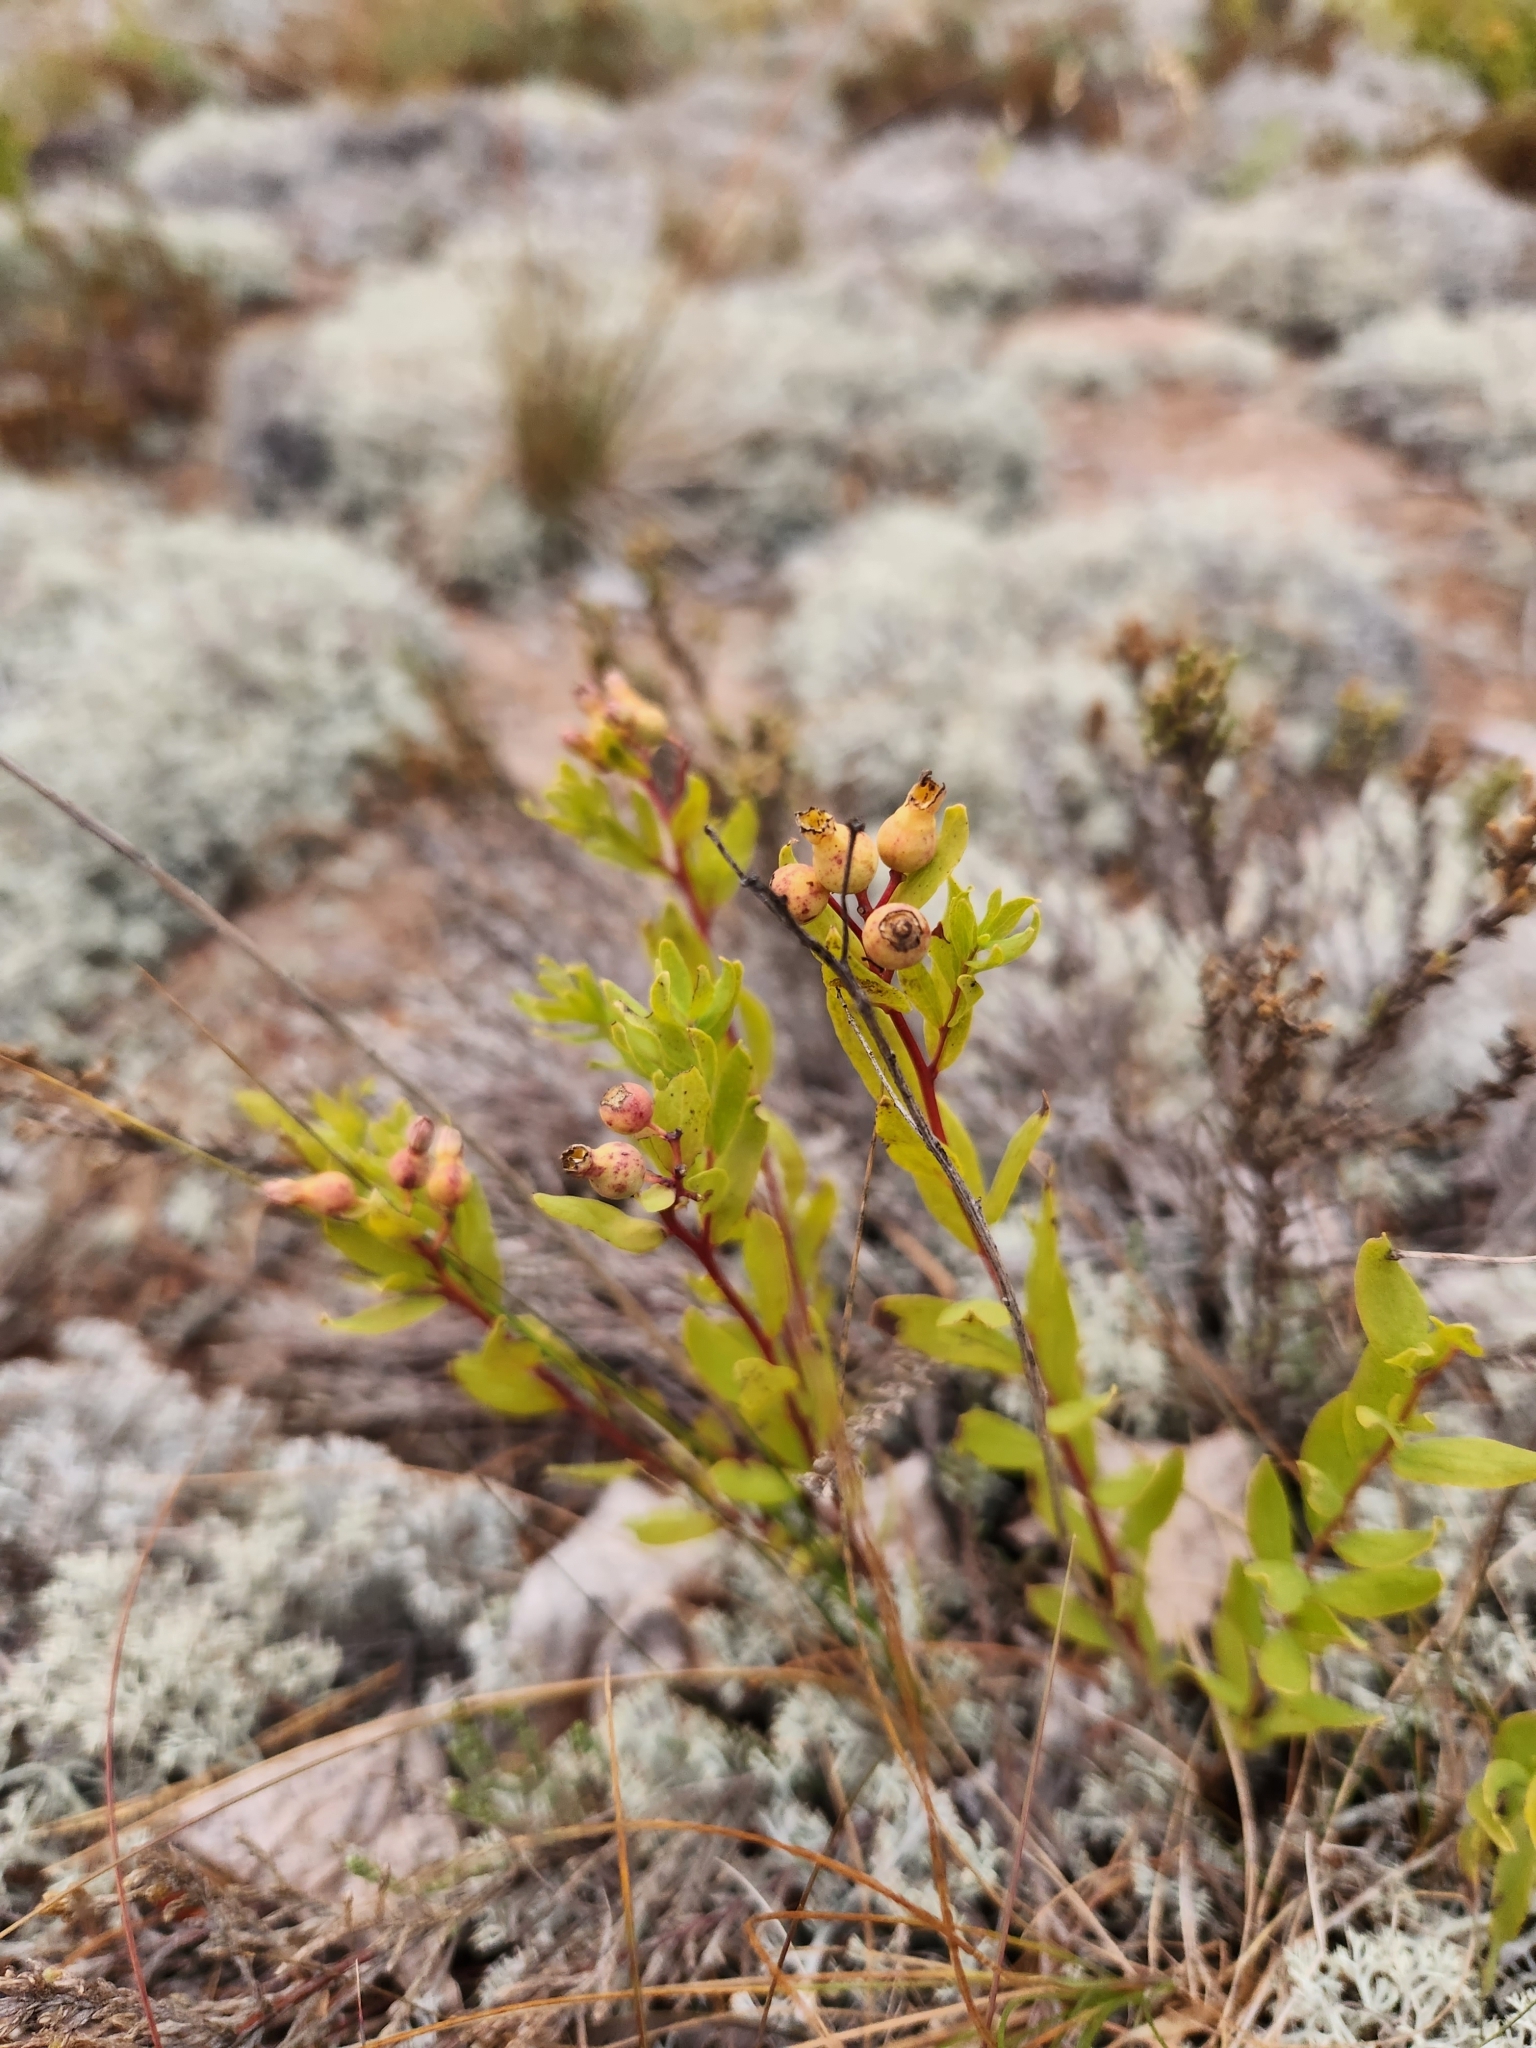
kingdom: Plantae
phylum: Tracheophyta
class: Magnoliopsida
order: Santalales
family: Comandraceae
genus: Comandra
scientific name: Comandra umbellata
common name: Bastard toadflax
